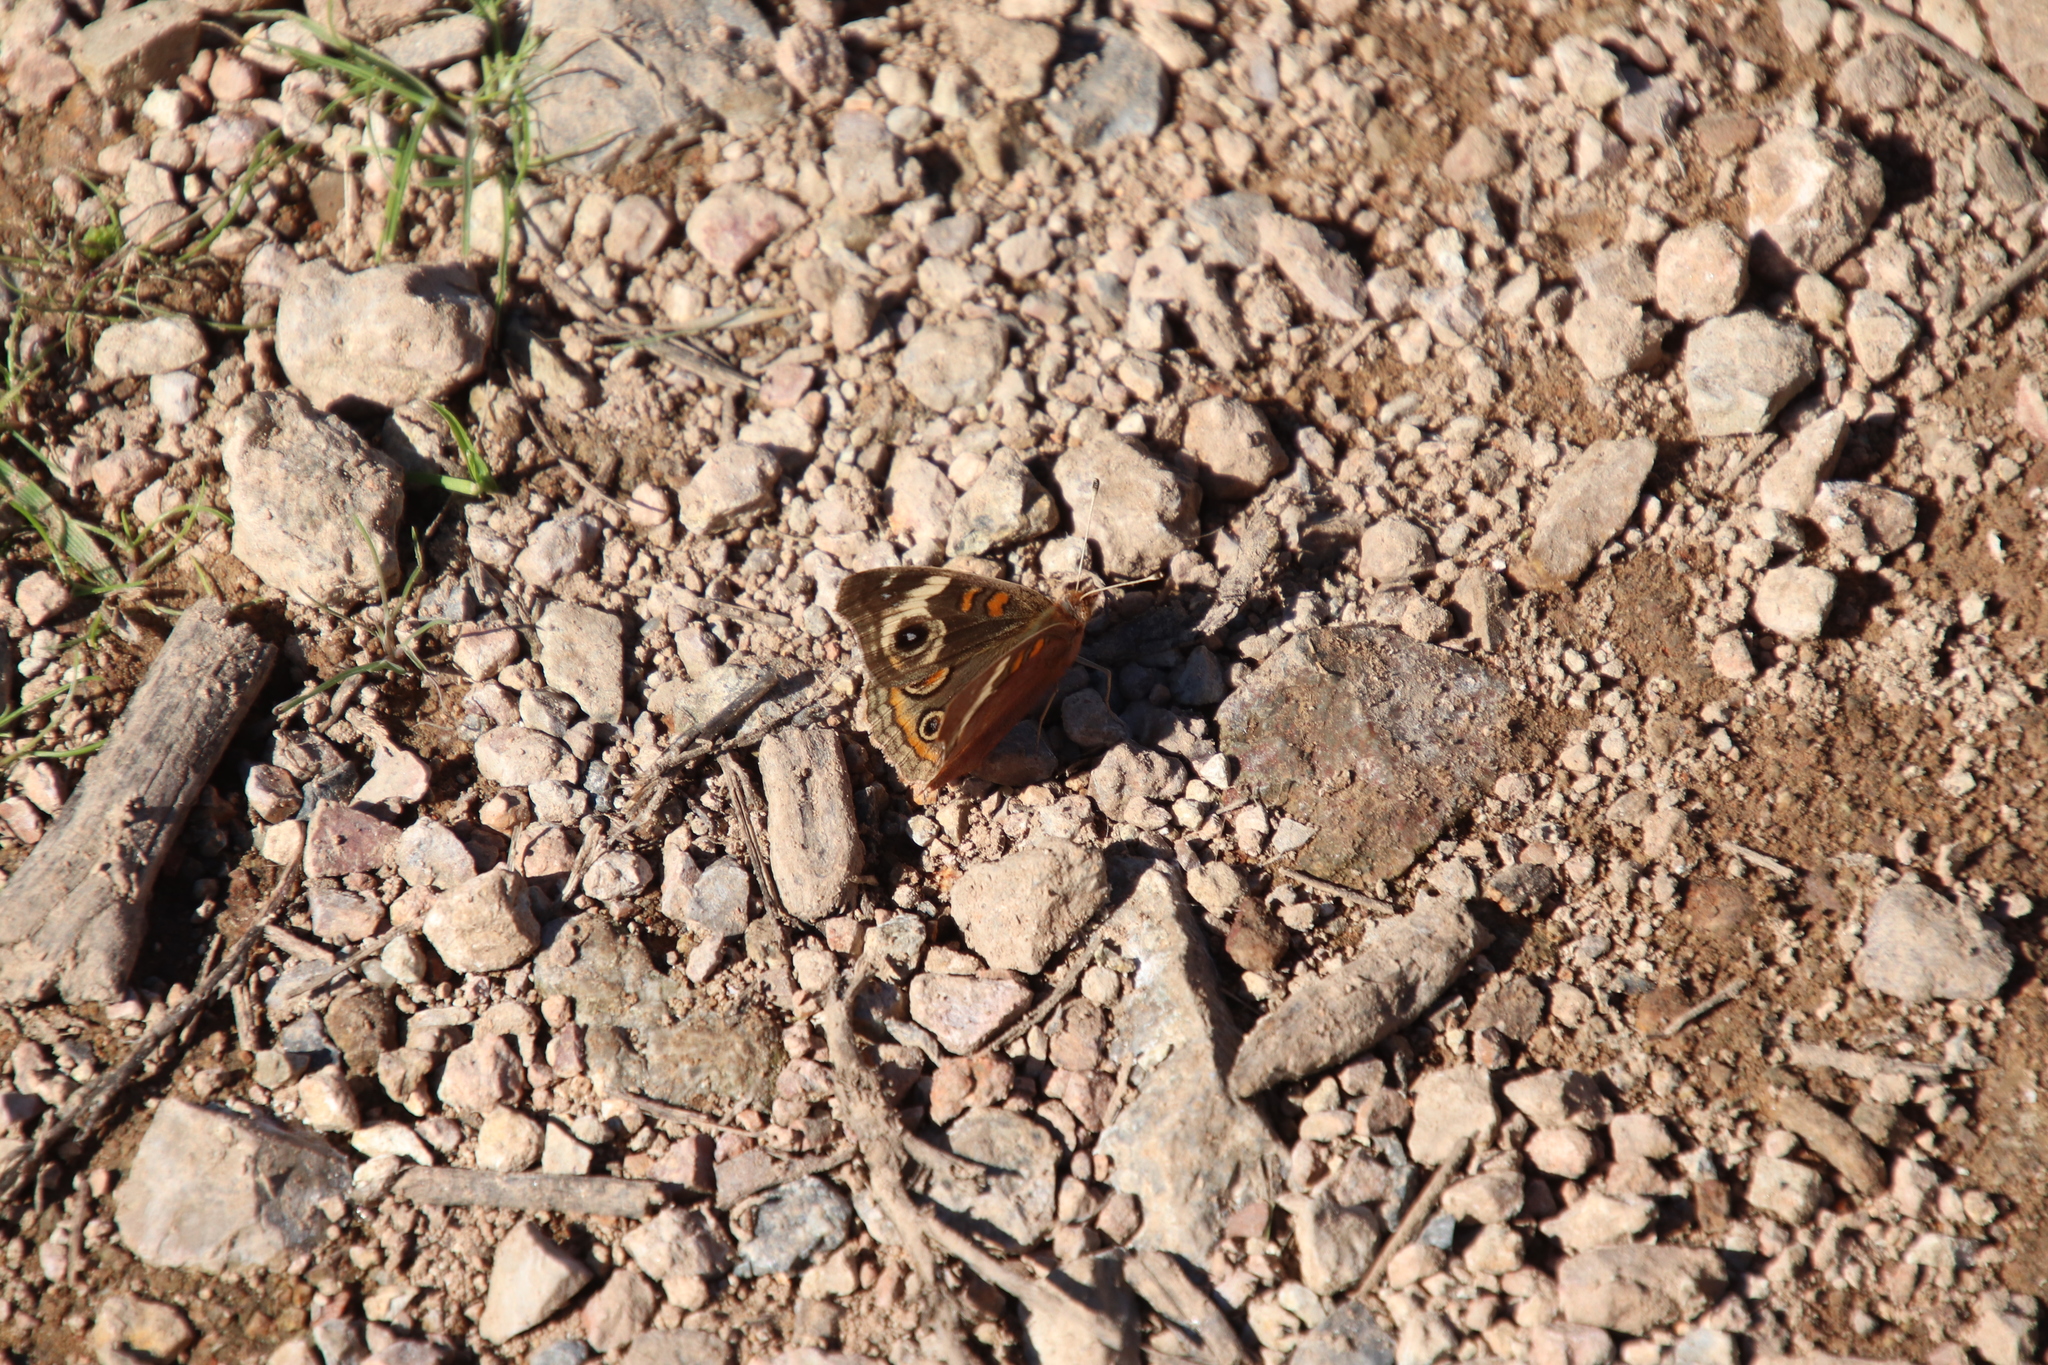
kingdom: Animalia
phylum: Arthropoda
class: Insecta
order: Lepidoptera
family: Nymphalidae
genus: Junonia
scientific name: Junonia grisea
